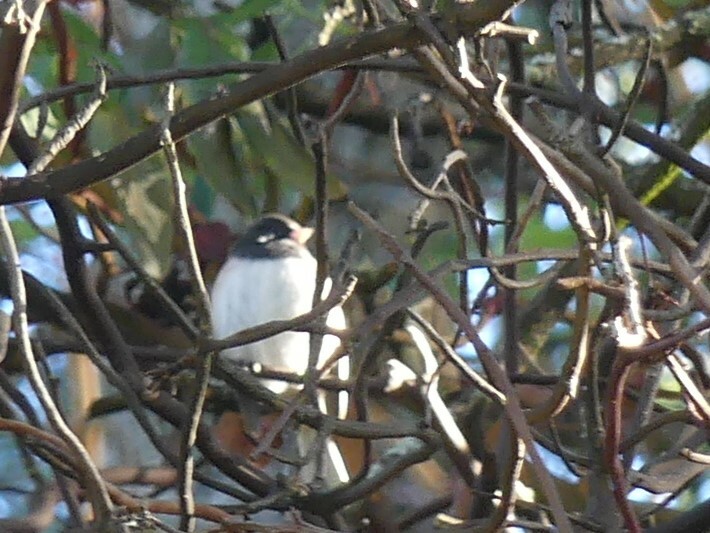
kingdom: Animalia
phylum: Chordata
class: Aves
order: Passeriformes
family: Passerellidae
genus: Junco
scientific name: Junco hyemalis
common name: Dark-eyed junco
